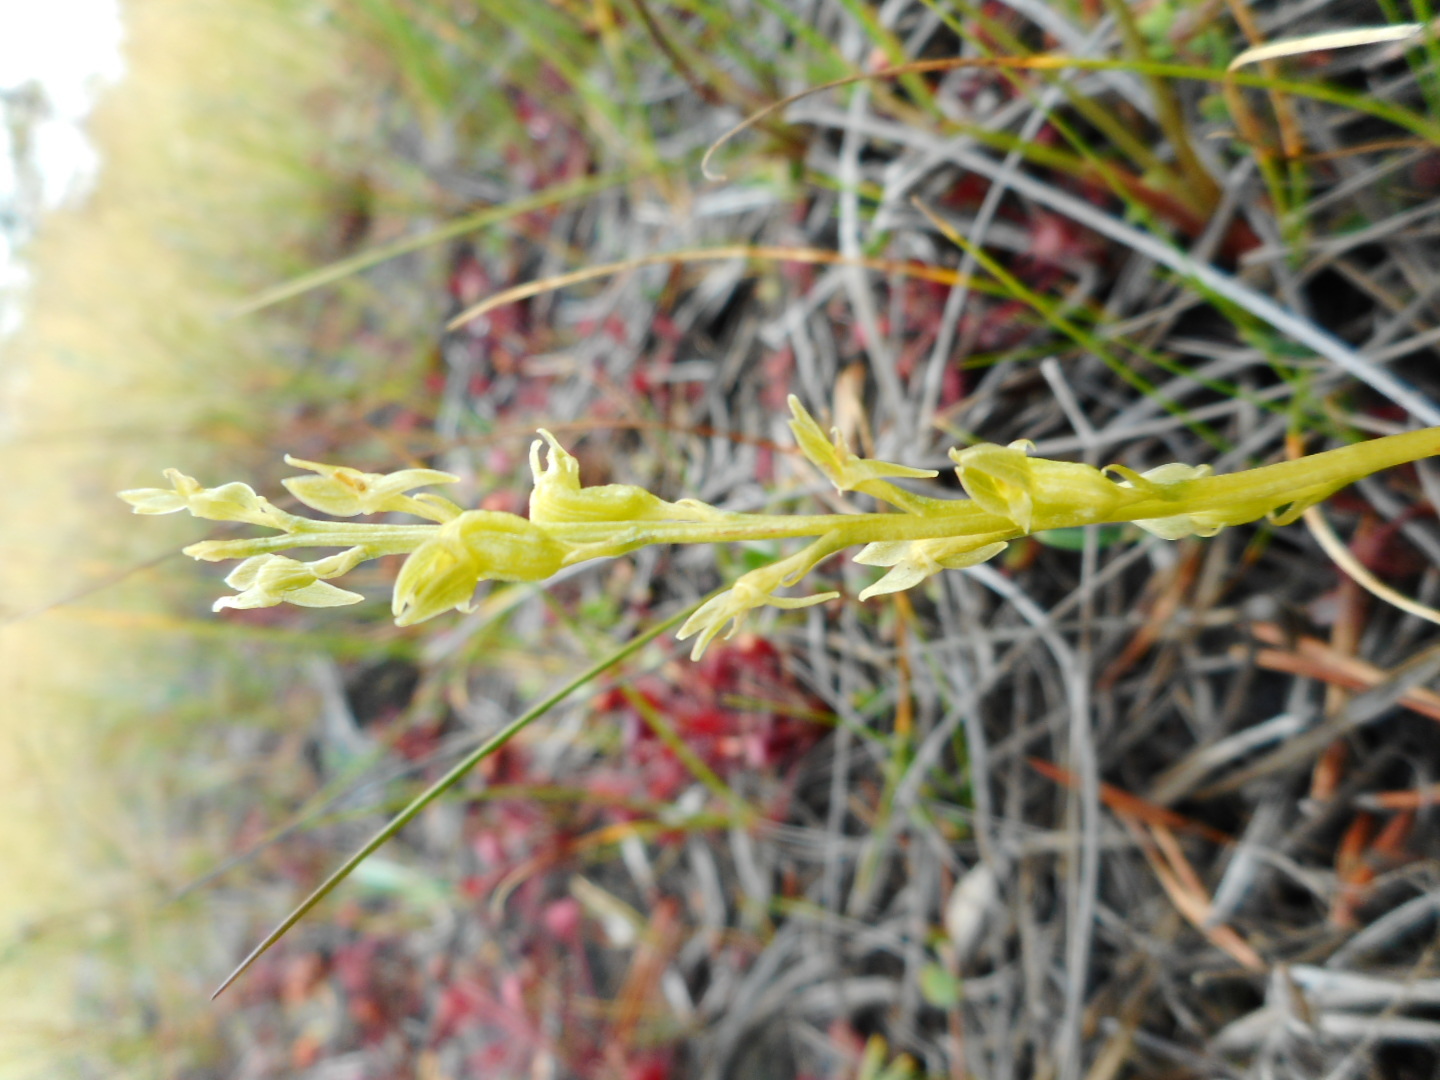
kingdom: Plantae
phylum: Tracheophyta
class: Liliopsida
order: Asparagales
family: Orchidaceae
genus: Hammarbya
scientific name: Hammarbya paludosa
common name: Bog orchid
